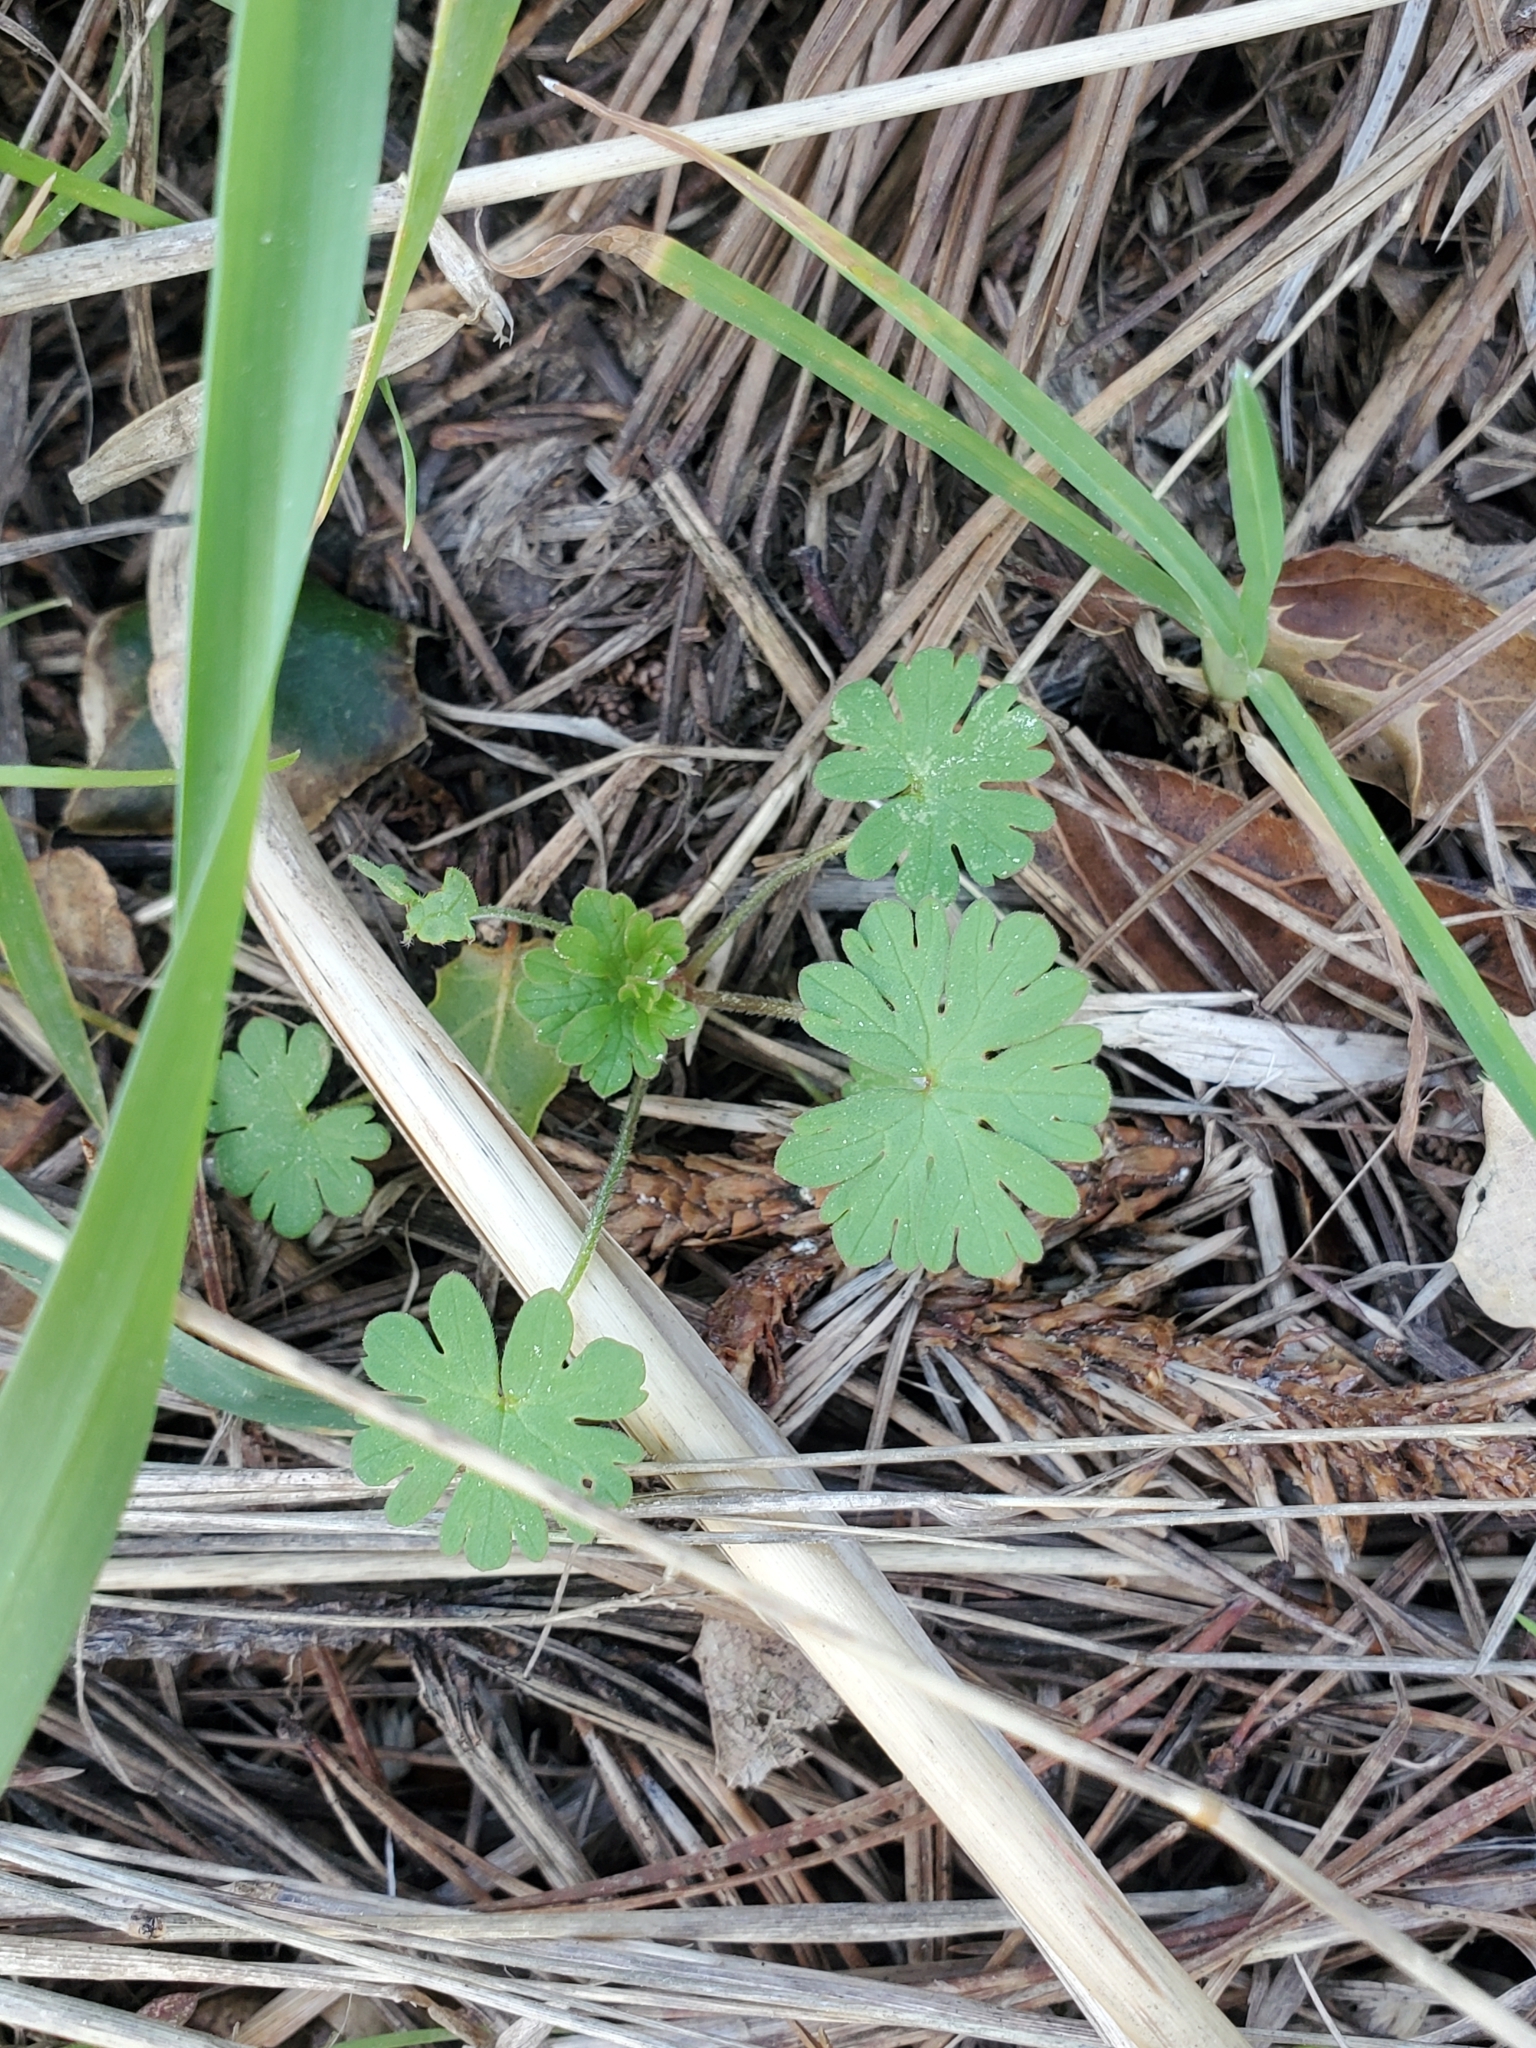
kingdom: Plantae
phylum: Tracheophyta
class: Magnoliopsida
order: Geraniales
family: Geraniaceae
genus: Geranium
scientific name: Geranium
